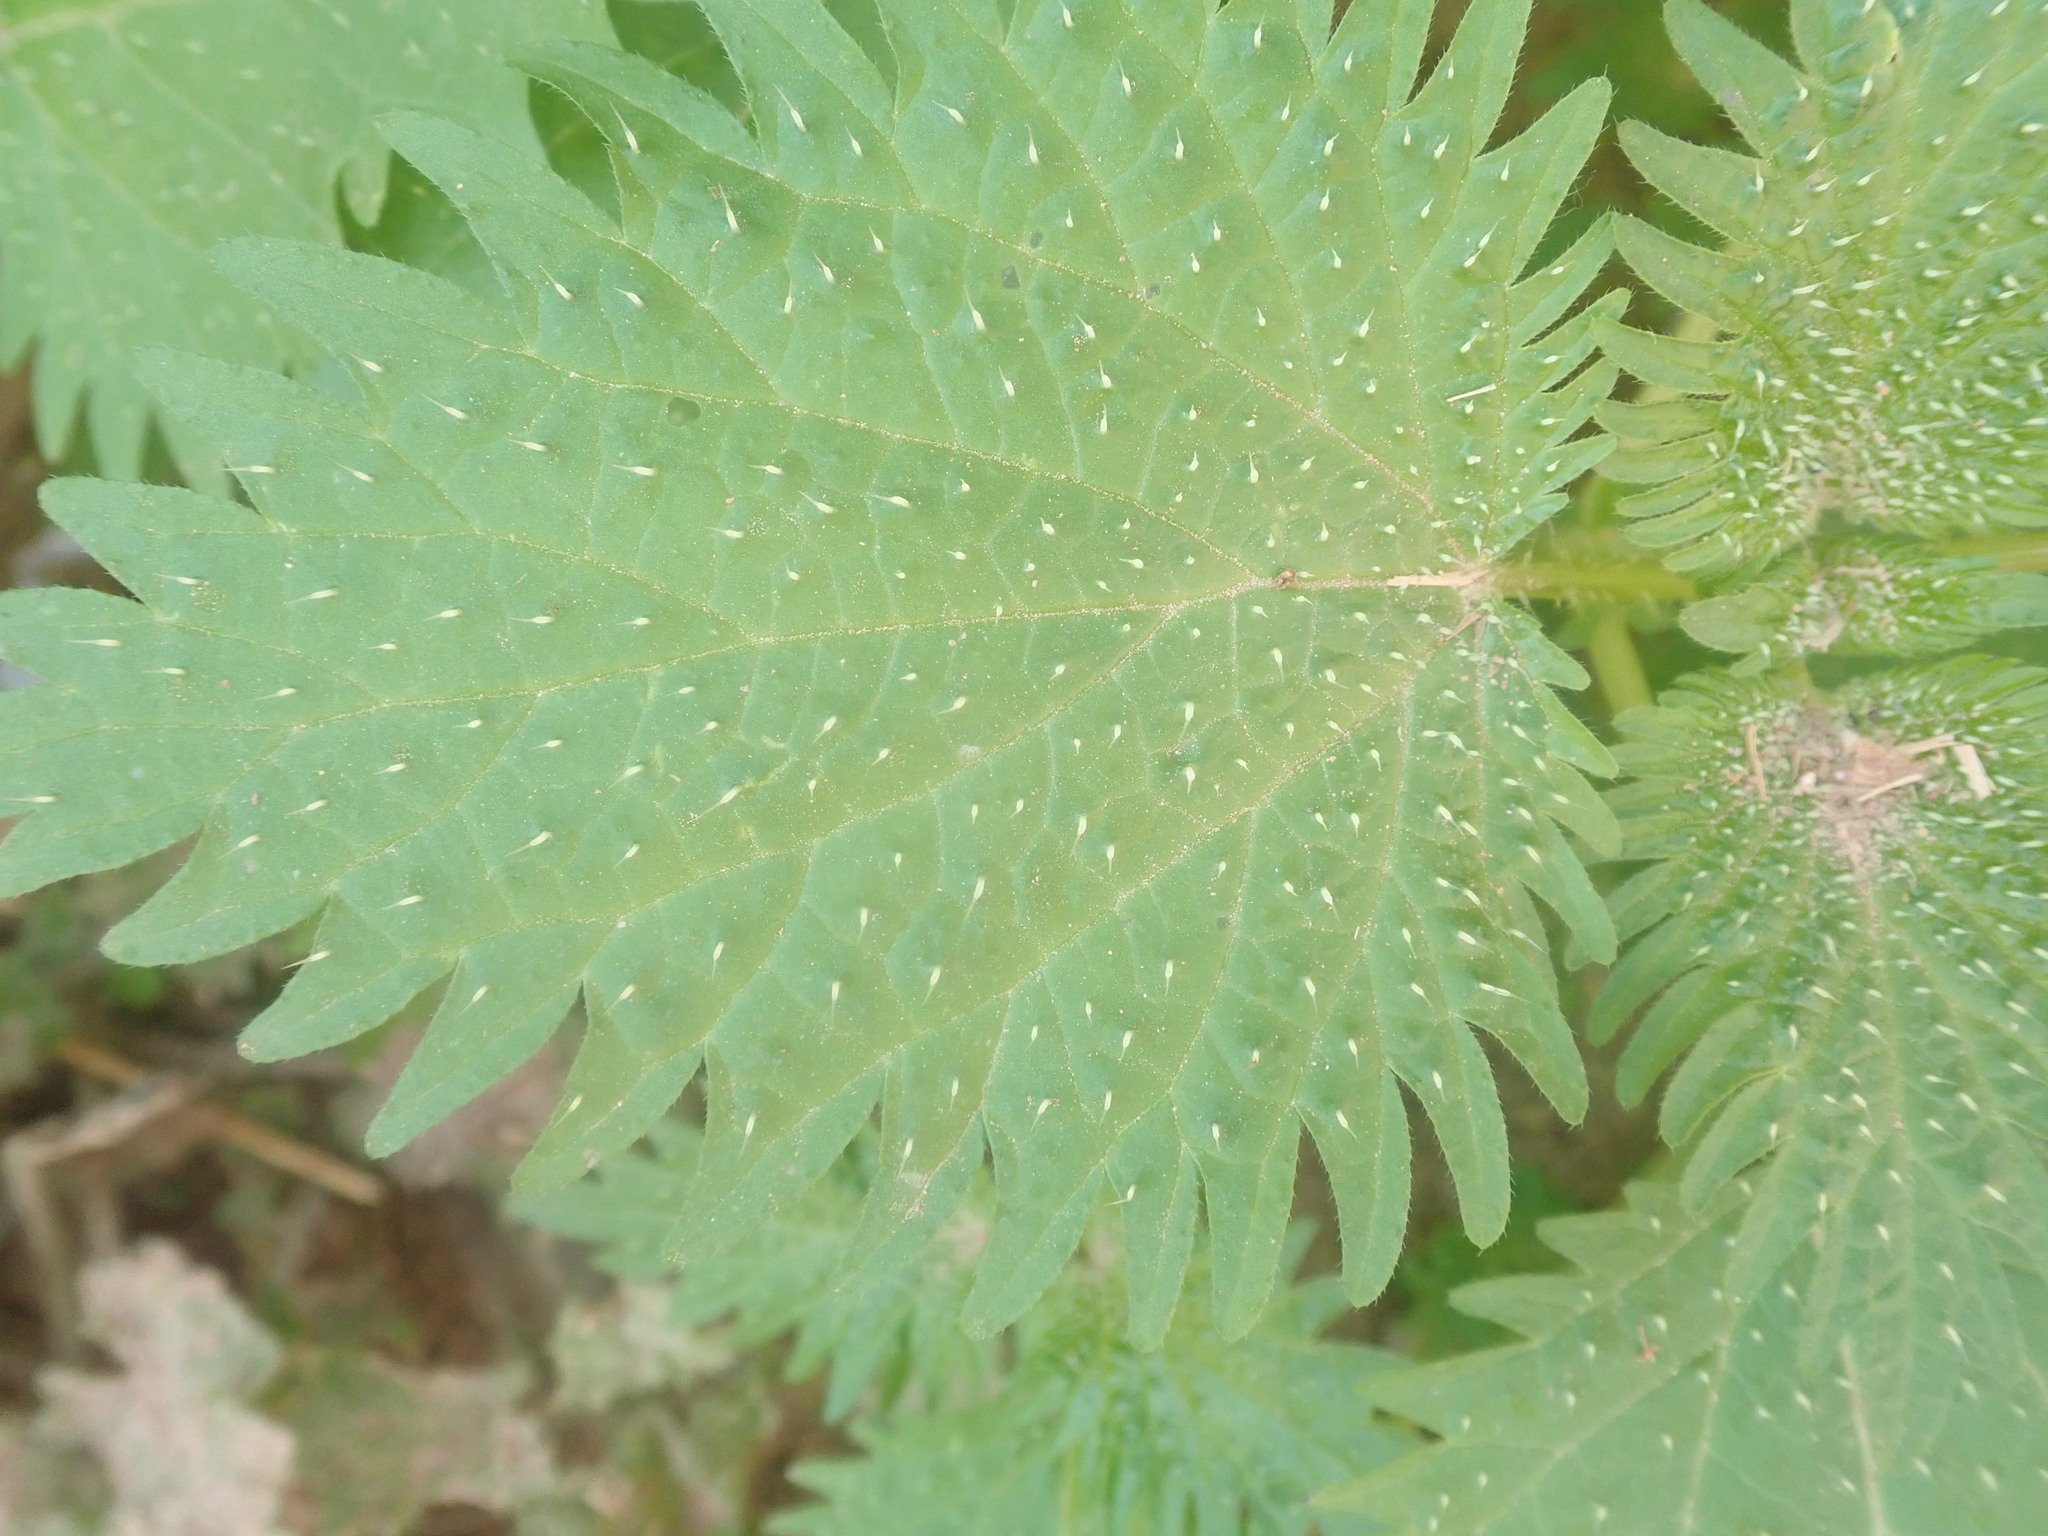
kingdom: Plantae
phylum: Tracheophyta
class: Magnoliopsida
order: Rosales
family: Urticaceae
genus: Urtica
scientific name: Urtica pilulifera
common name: Roman nettle
